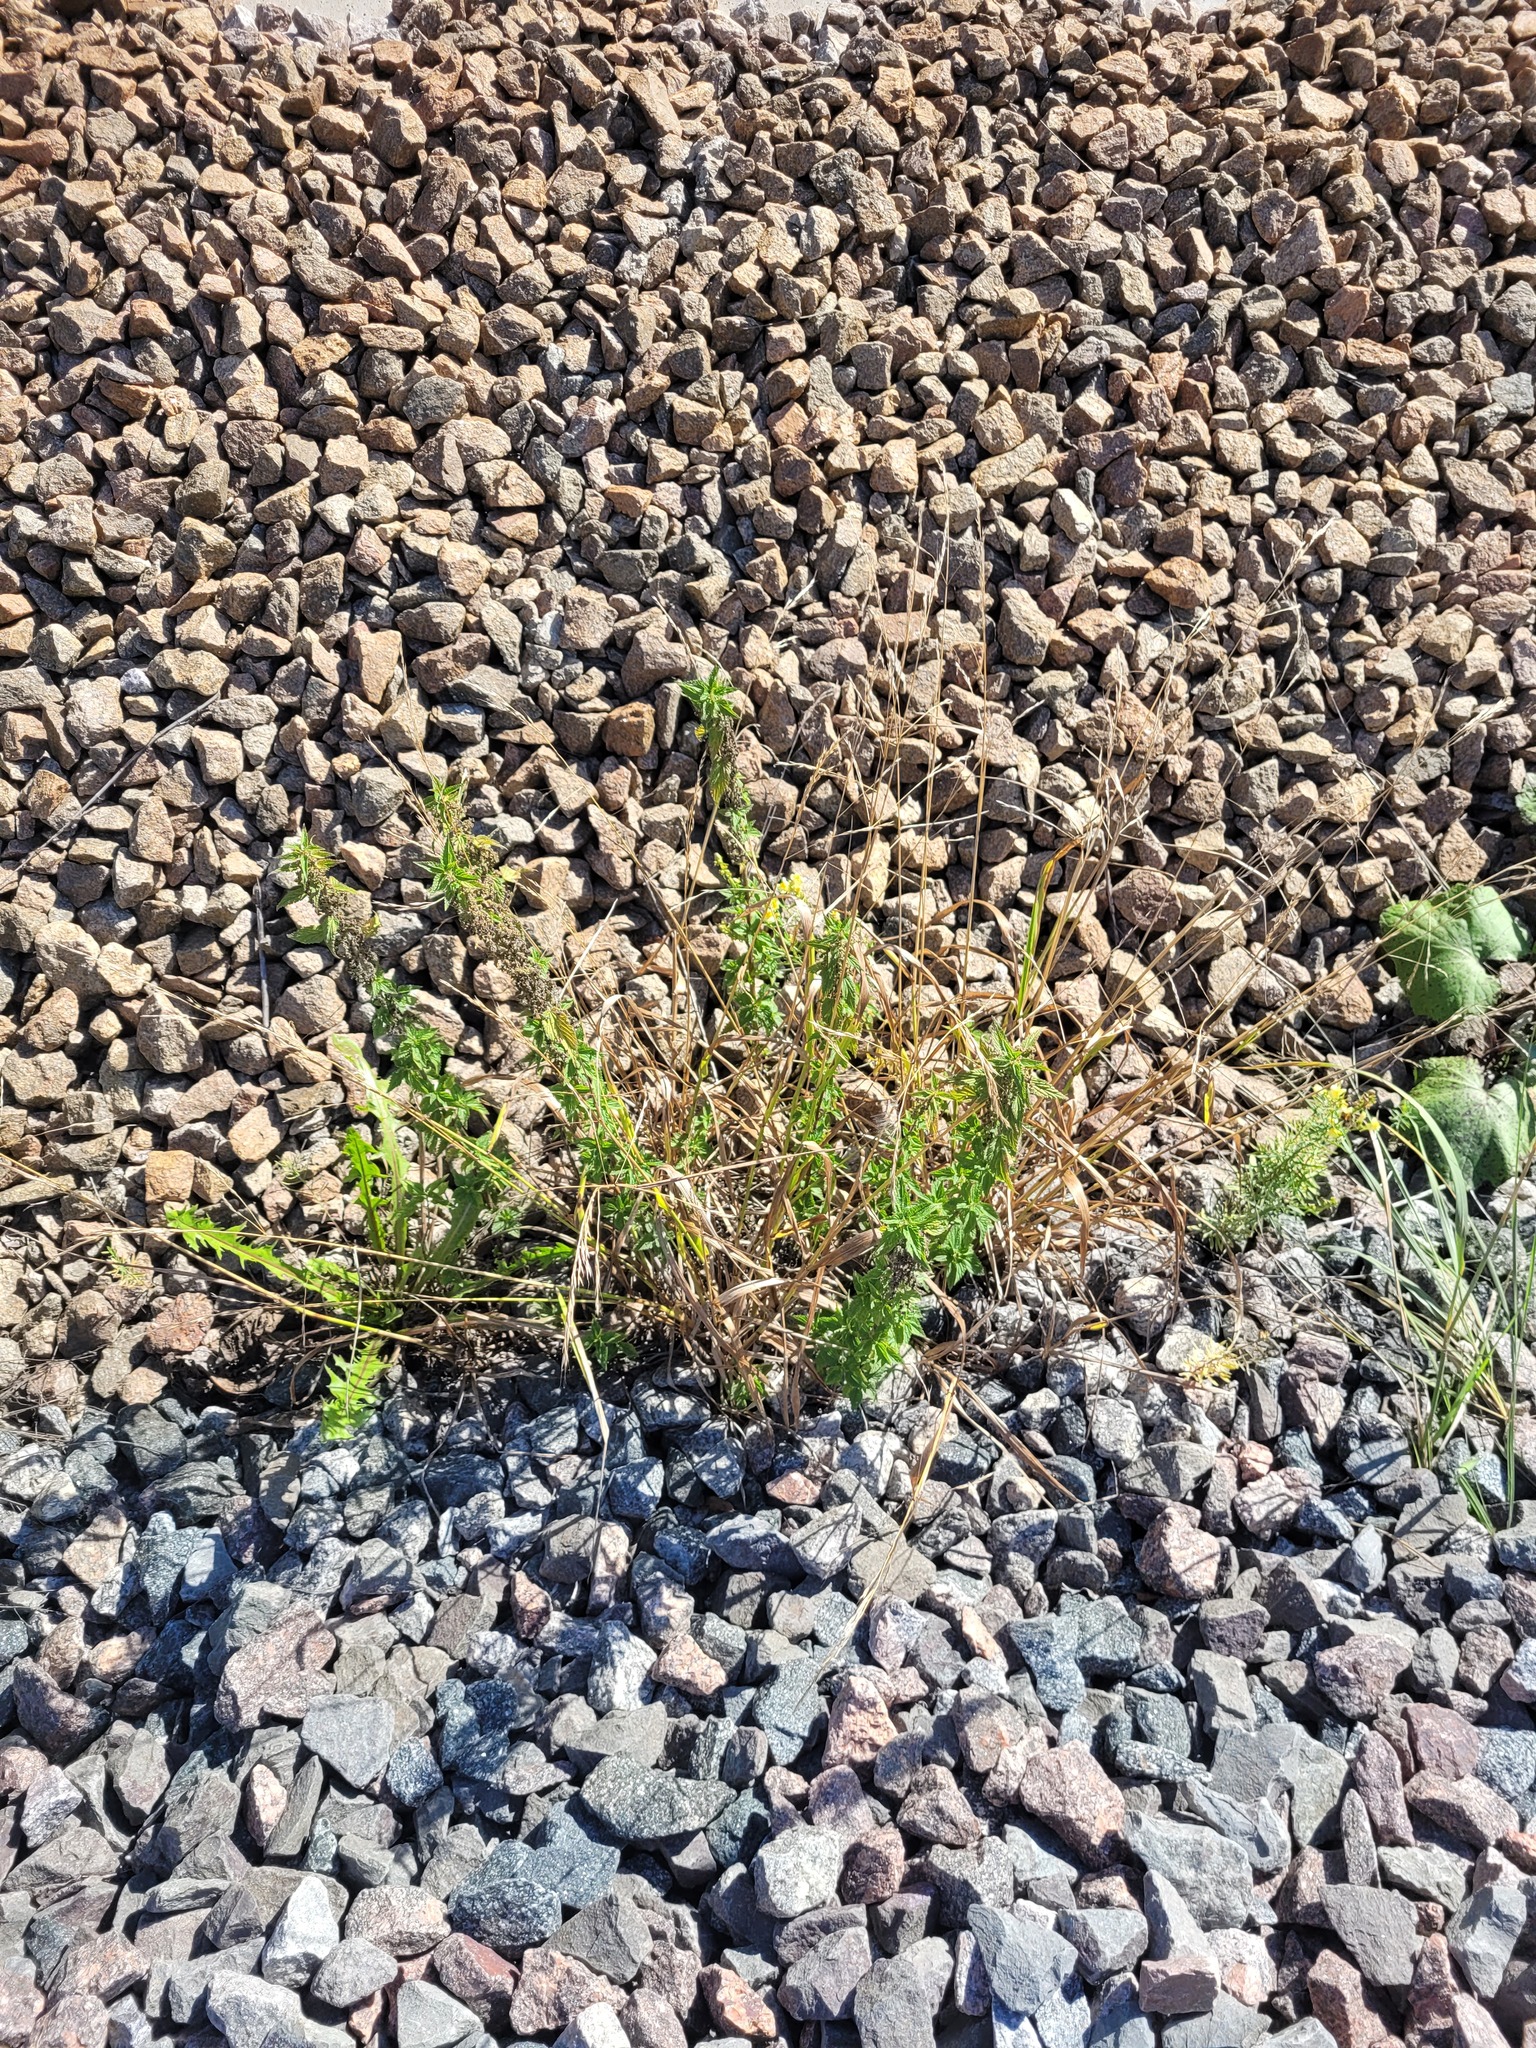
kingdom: Plantae
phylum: Tracheophyta
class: Liliopsida
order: Poales
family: Poaceae
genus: Lolium
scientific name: Lolium giganteum
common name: Giant fescue
